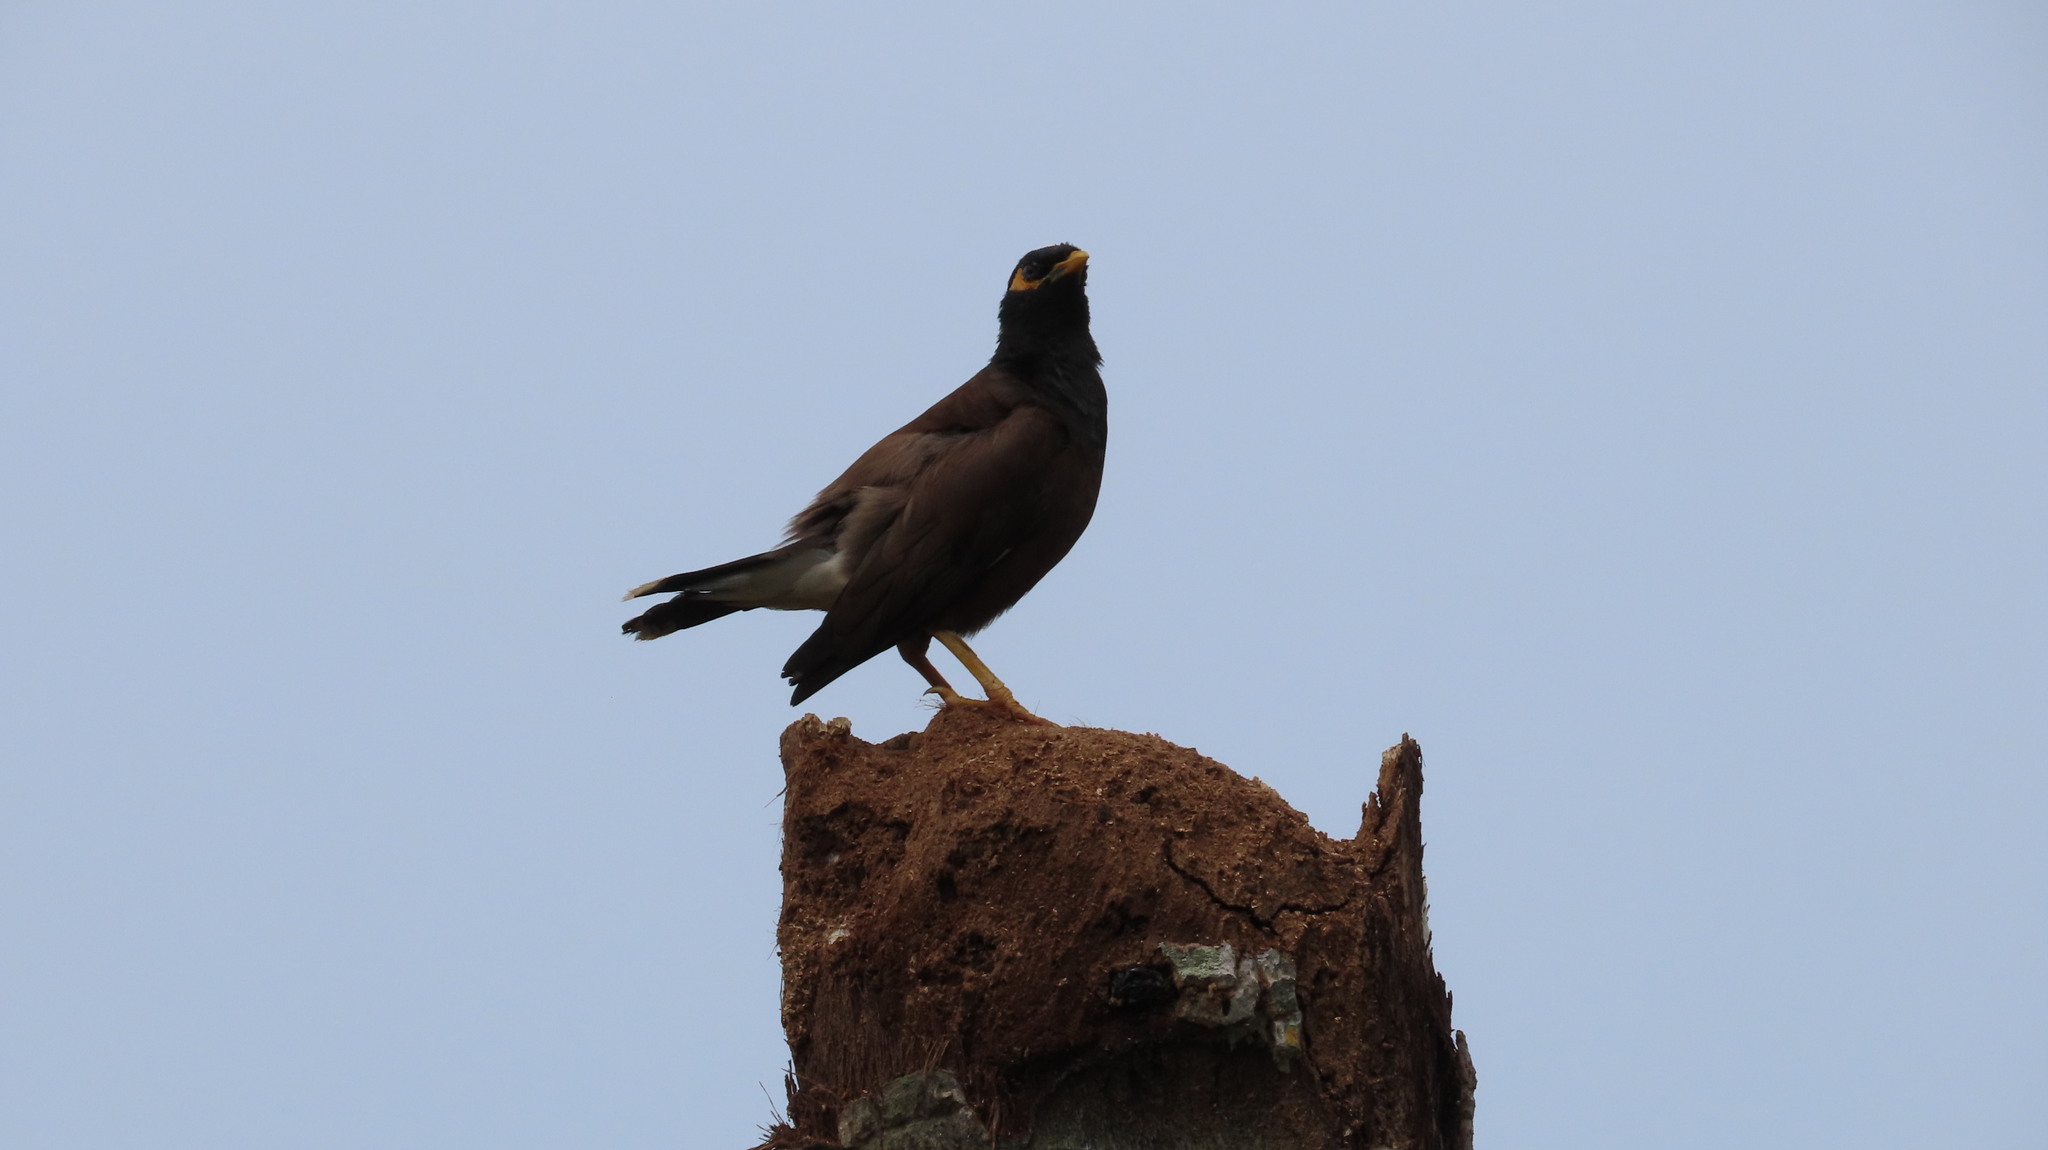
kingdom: Animalia
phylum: Chordata
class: Aves
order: Passeriformes
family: Sturnidae
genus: Acridotheres
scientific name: Acridotheres tristis
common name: Common myna
